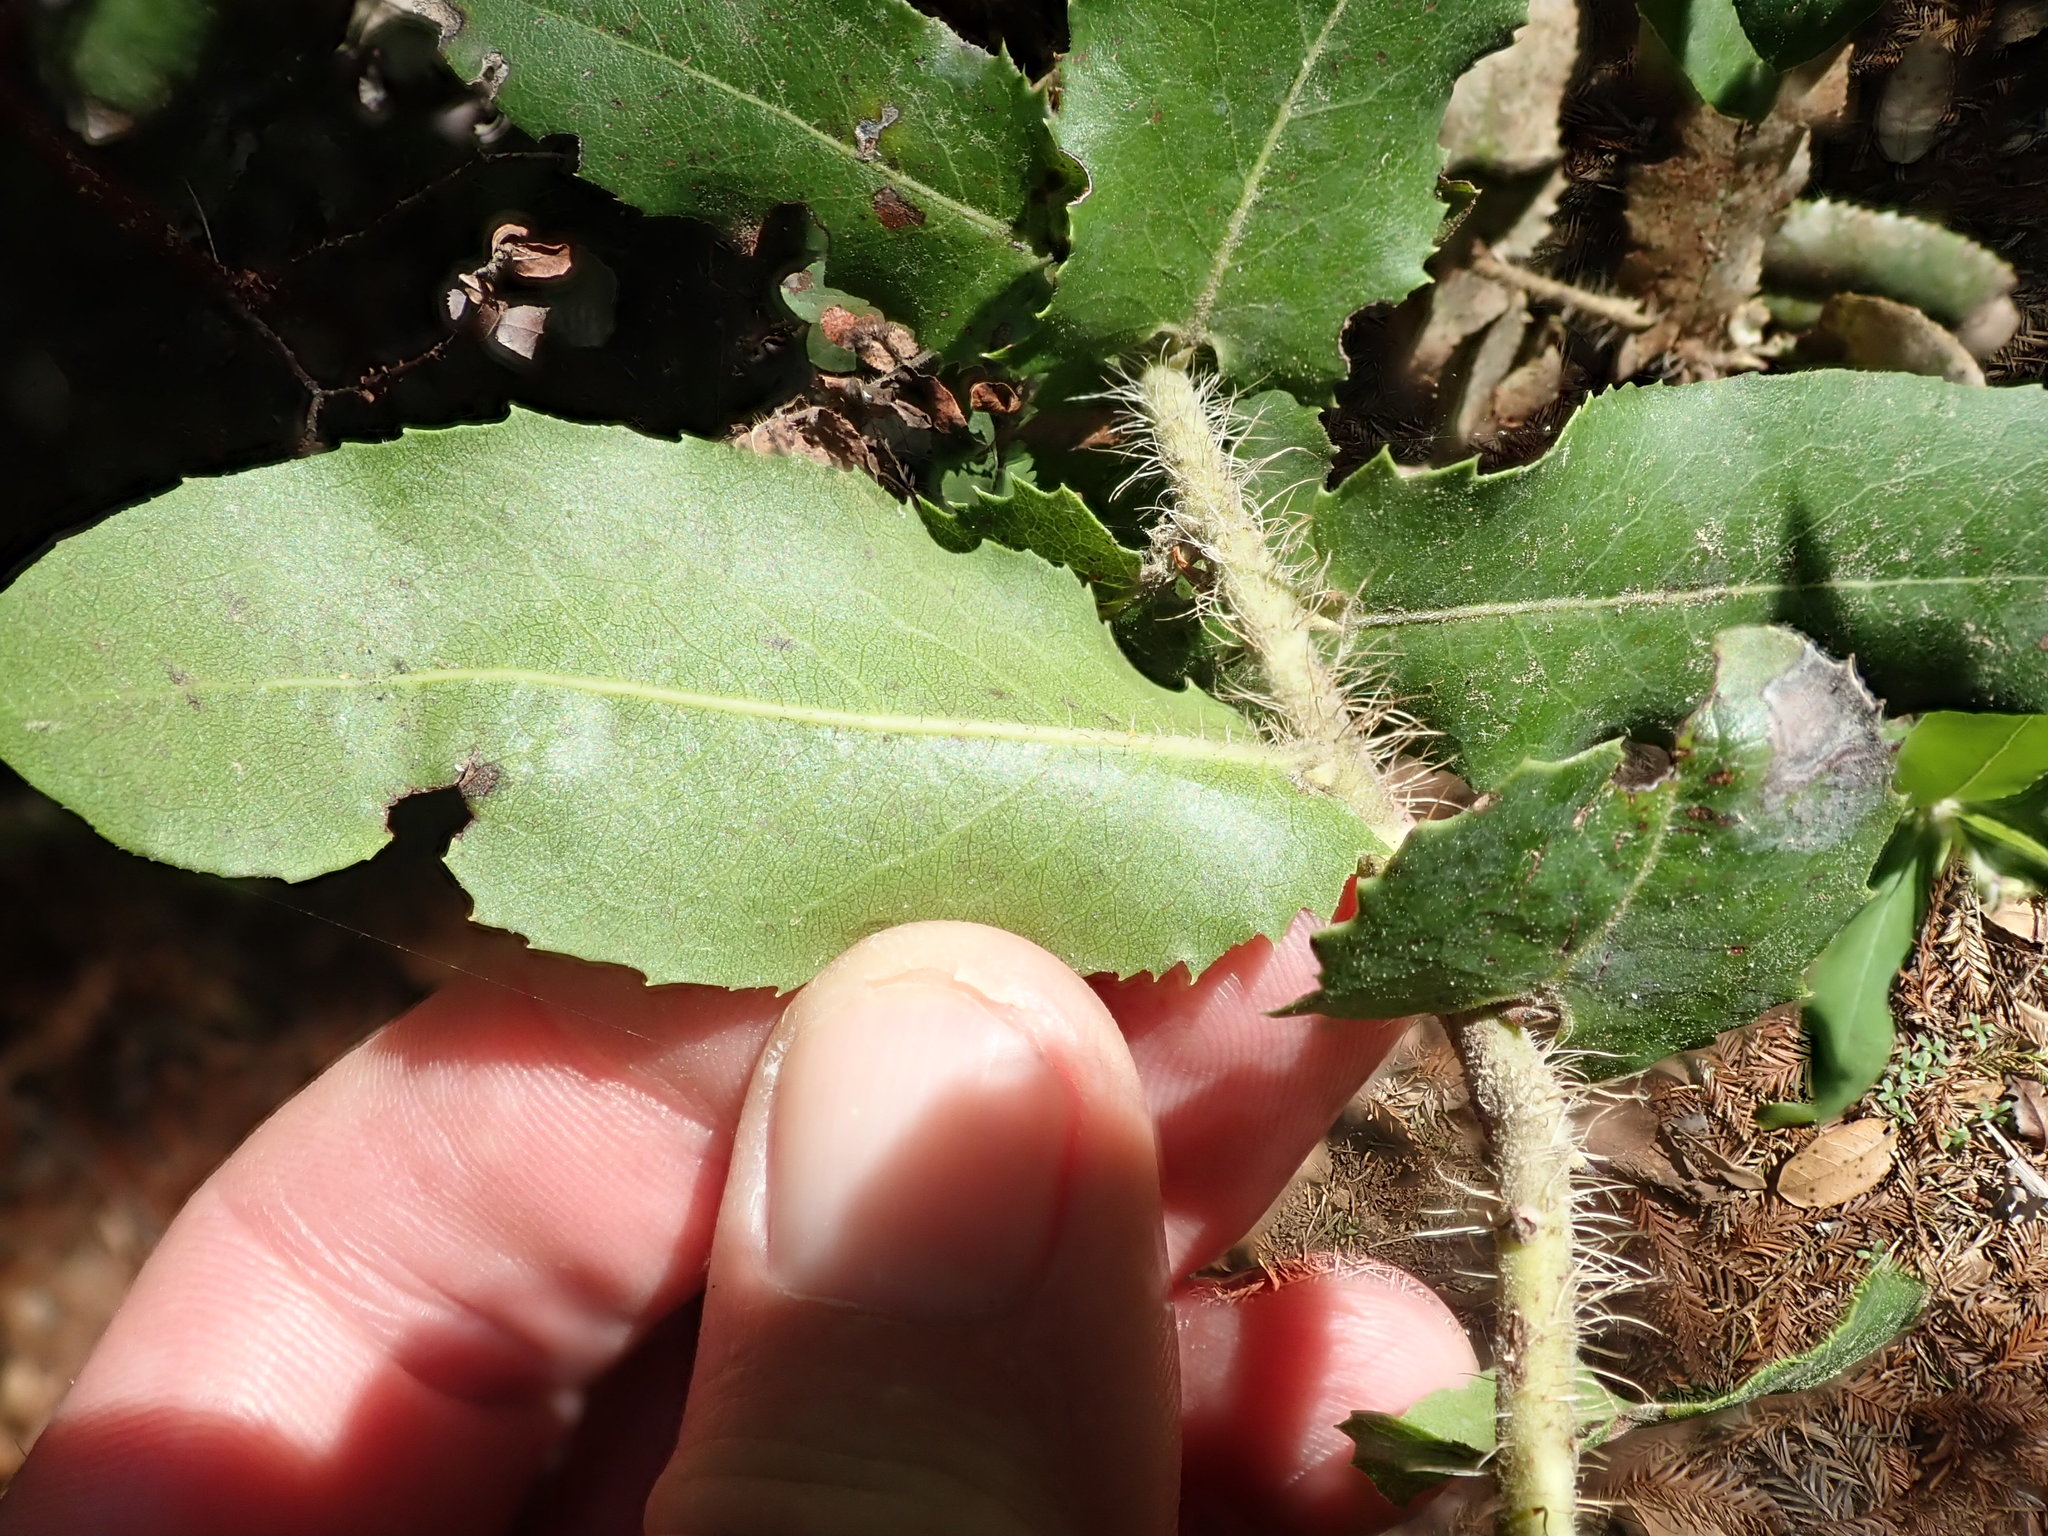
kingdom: Plantae
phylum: Tracheophyta
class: Magnoliopsida
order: Ericales
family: Ericaceae
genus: Arctostaphylos
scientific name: Arctostaphylos andersonii
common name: Santa cruz manzanita
